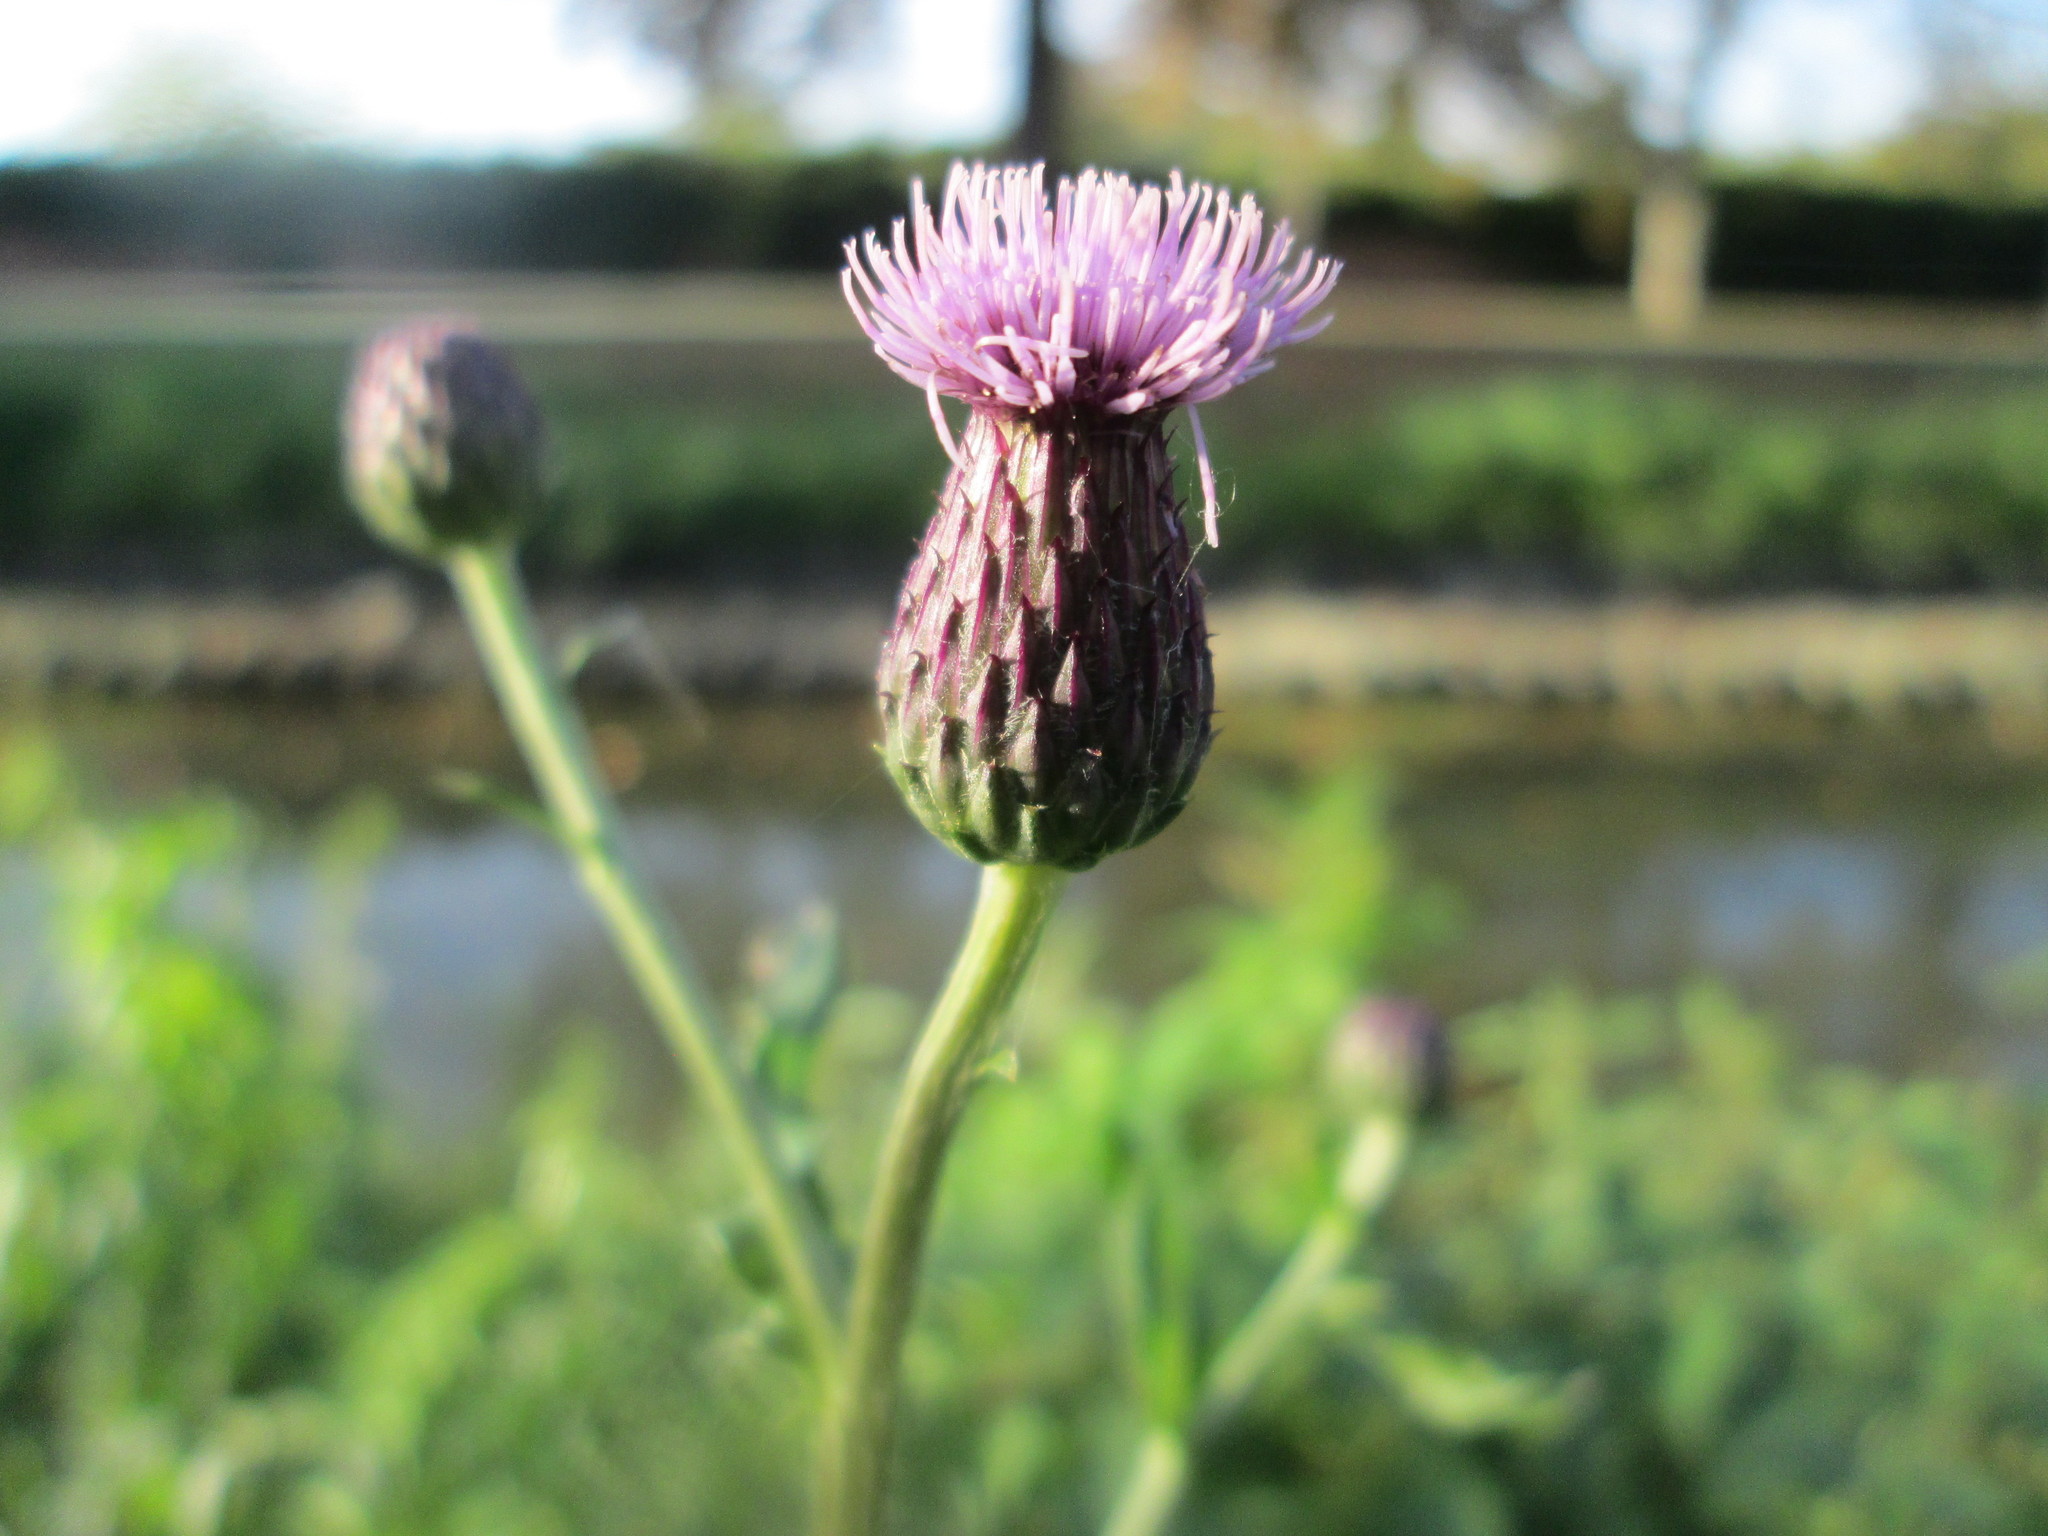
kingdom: Plantae
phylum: Tracheophyta
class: Magnoliopsida
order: Asterales
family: Asteraceae
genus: Cirsium
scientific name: Cirsium arvense
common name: Creeping thistle
